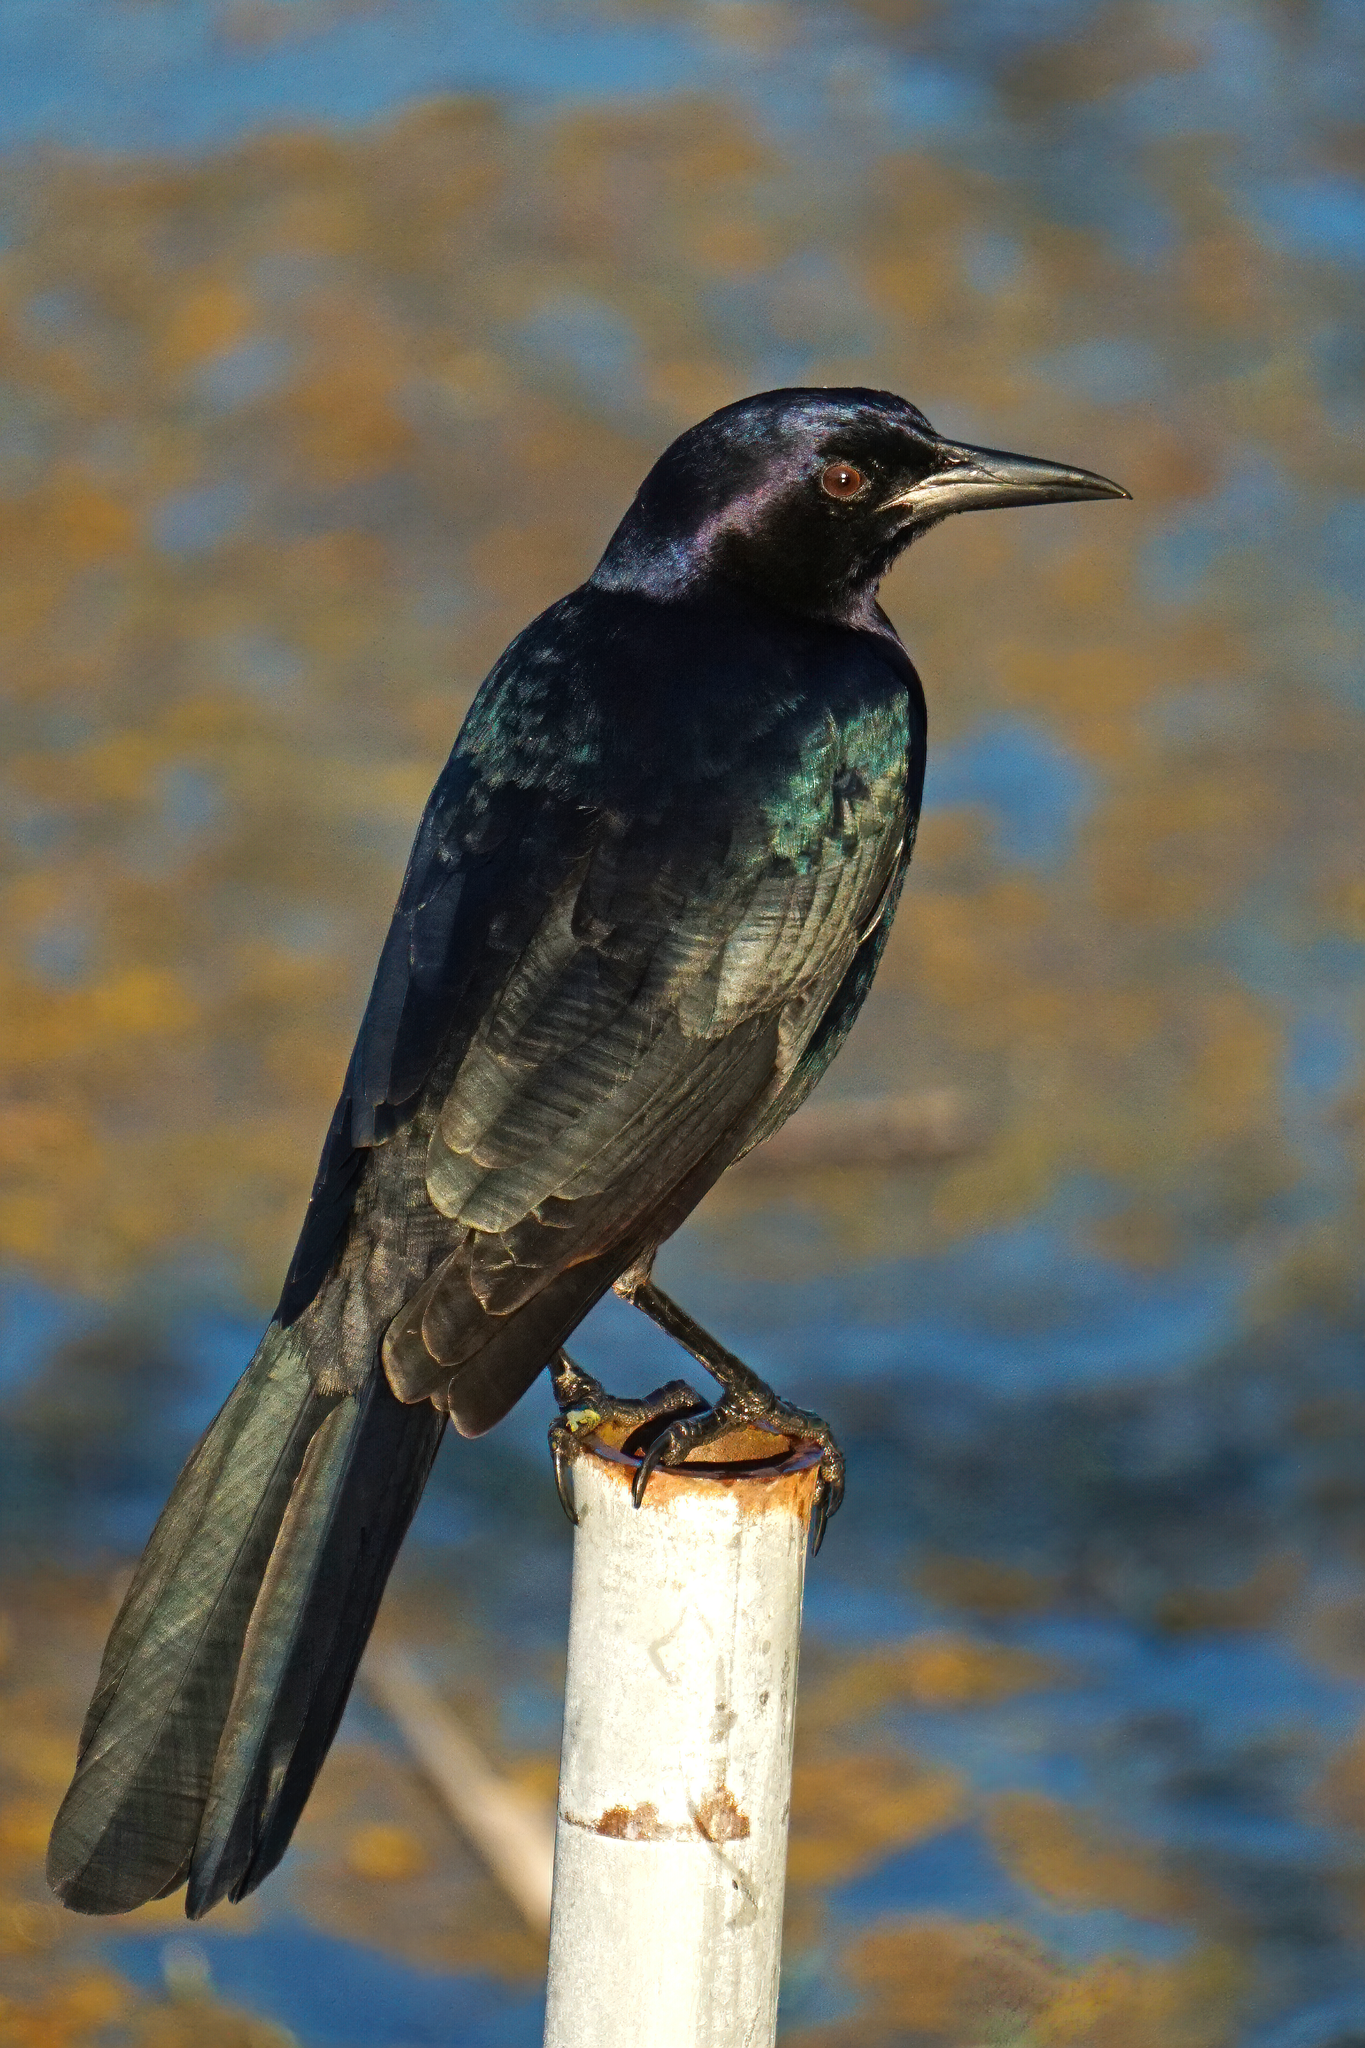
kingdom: Animalia
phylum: Chordata
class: Aves
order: Passeriformes
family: Icteridae
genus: Quiscalus
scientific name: Quiscalus major
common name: Boat-tailed grackle
